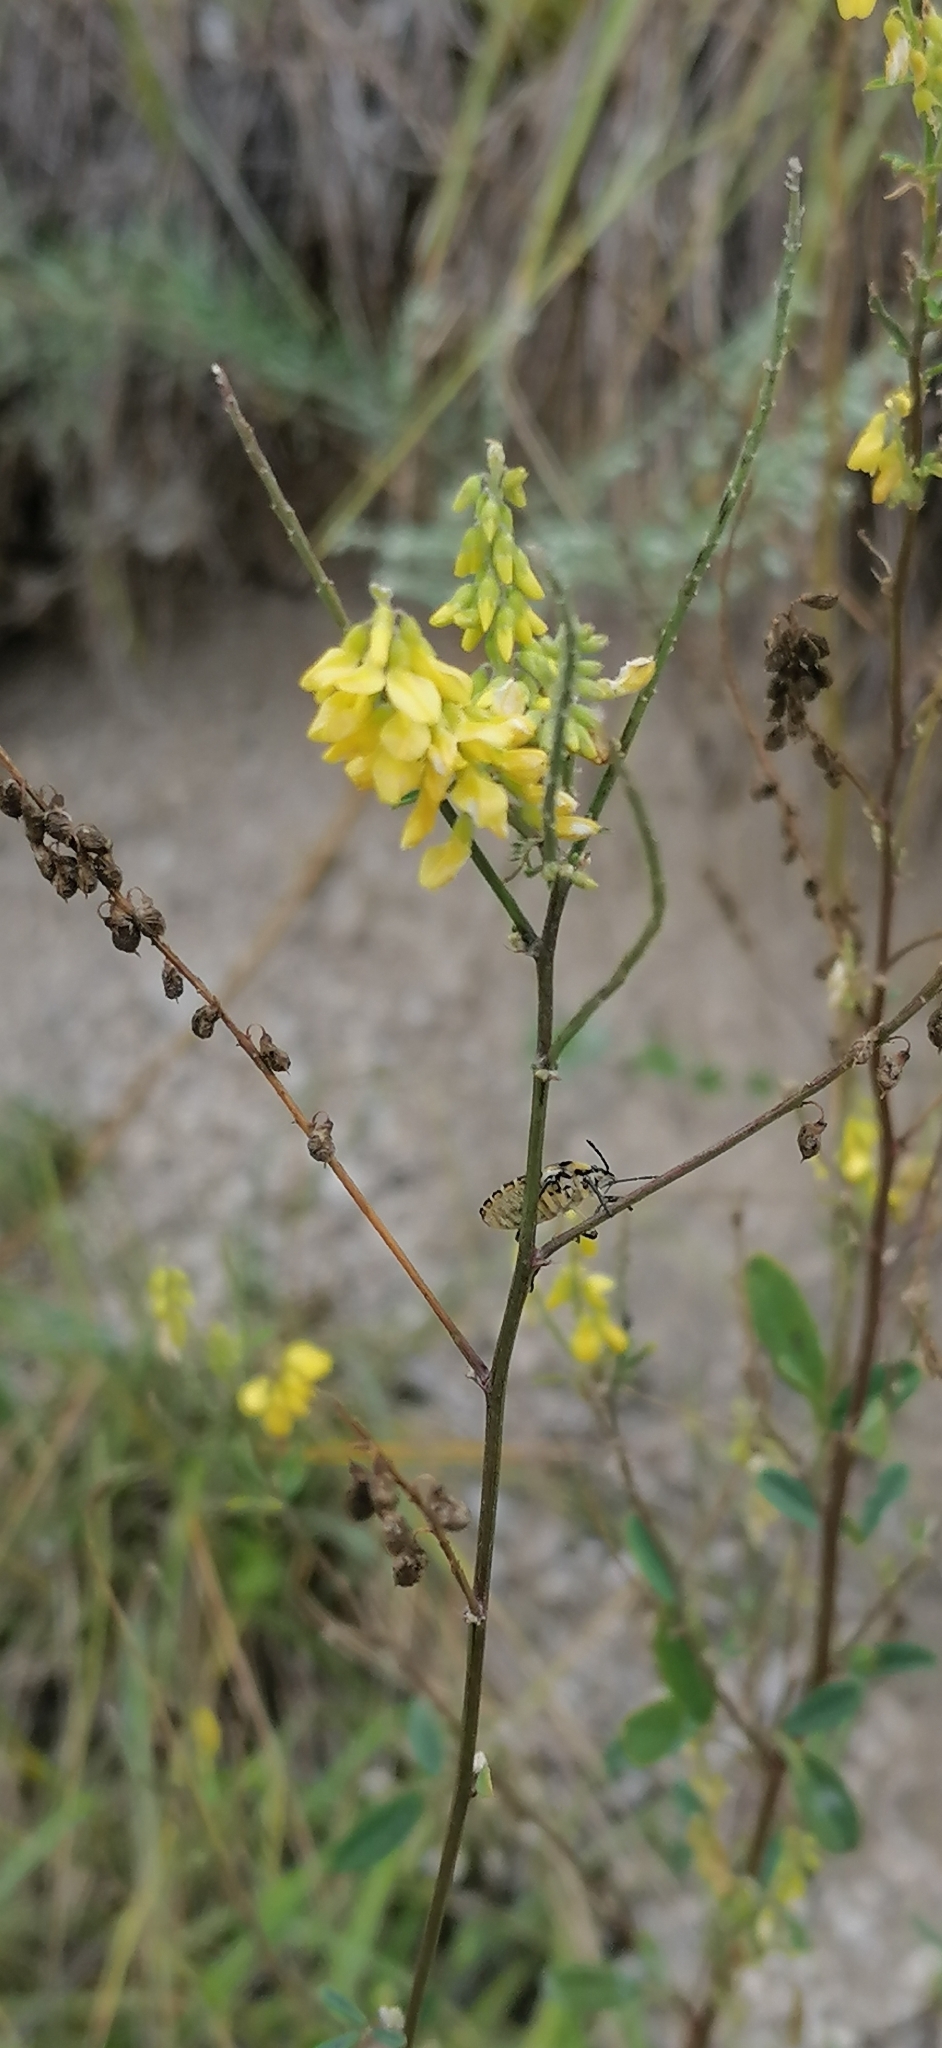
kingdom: Plantae
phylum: Tracheophyta
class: Magnoliopsida
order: Fabales
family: Fabaceae
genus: Melilotus
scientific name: Melilotus officinalis
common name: Sweetclover
